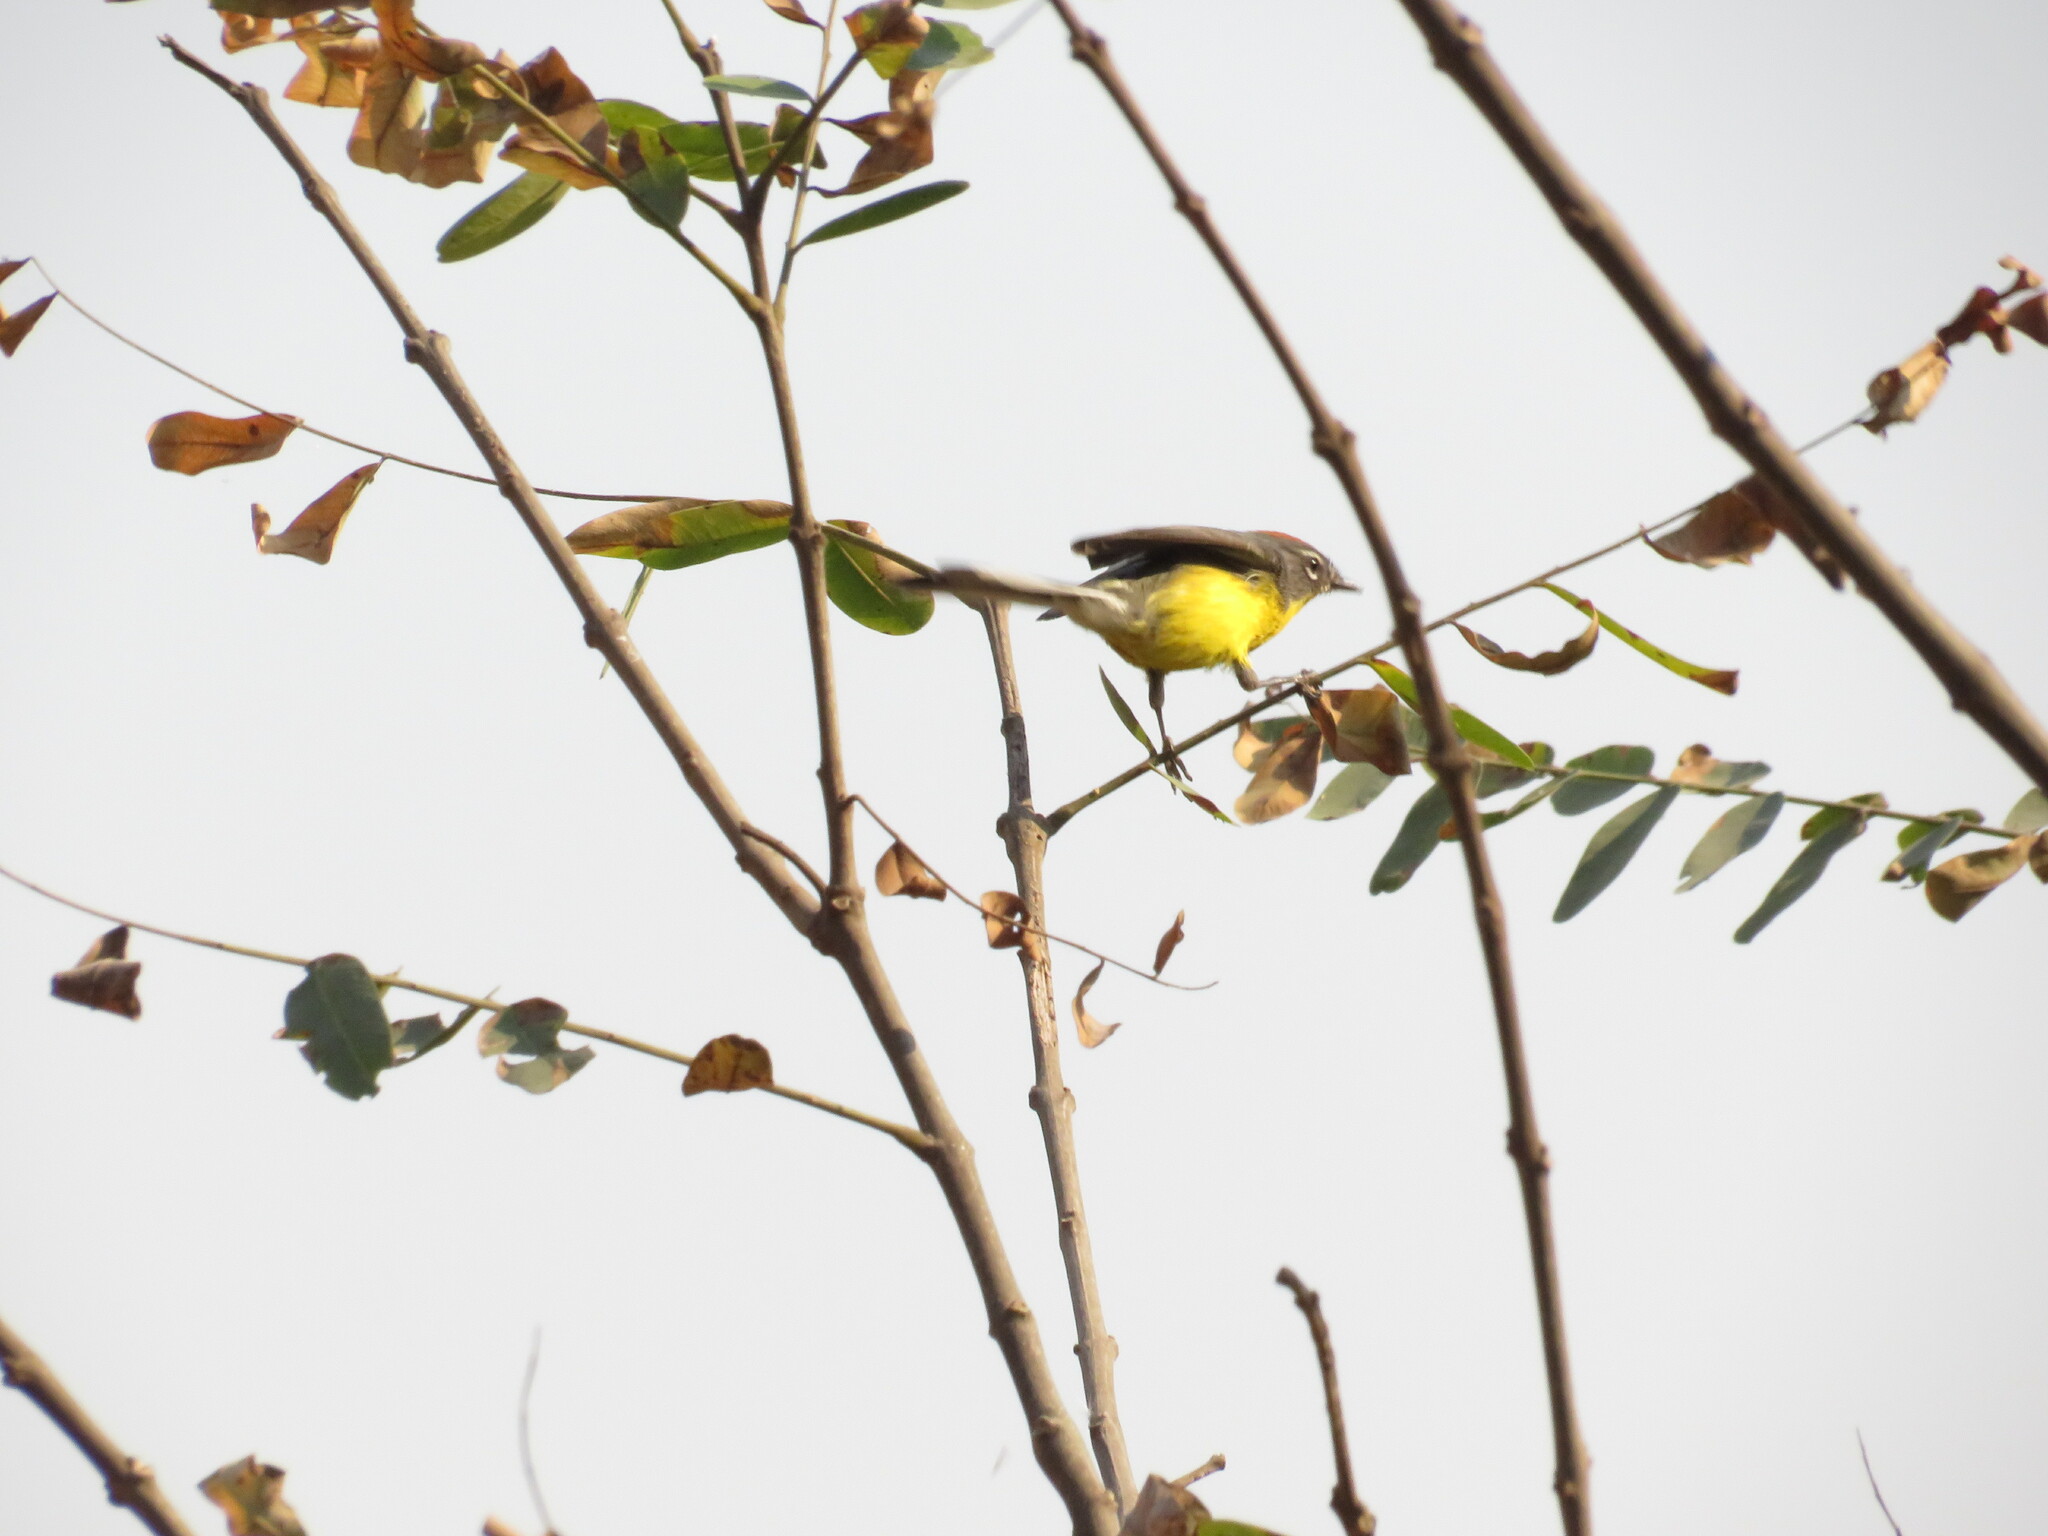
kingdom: Animalia
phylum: Chordata
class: Aves
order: Passeriformes
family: Parulidae
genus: Myioborus
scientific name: Myioborus brunniceps
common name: Brown-capped whitestart
